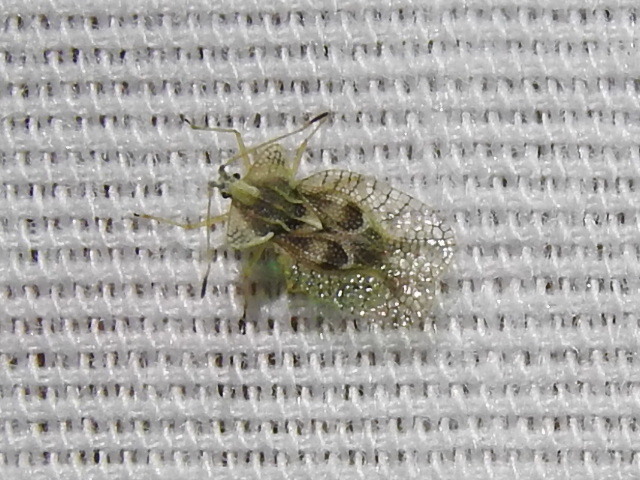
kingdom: Animalia
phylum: Arthropoda
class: Insecta
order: Hemiptera
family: Tingidae
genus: Gargaphia
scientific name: Gargaphia solani
